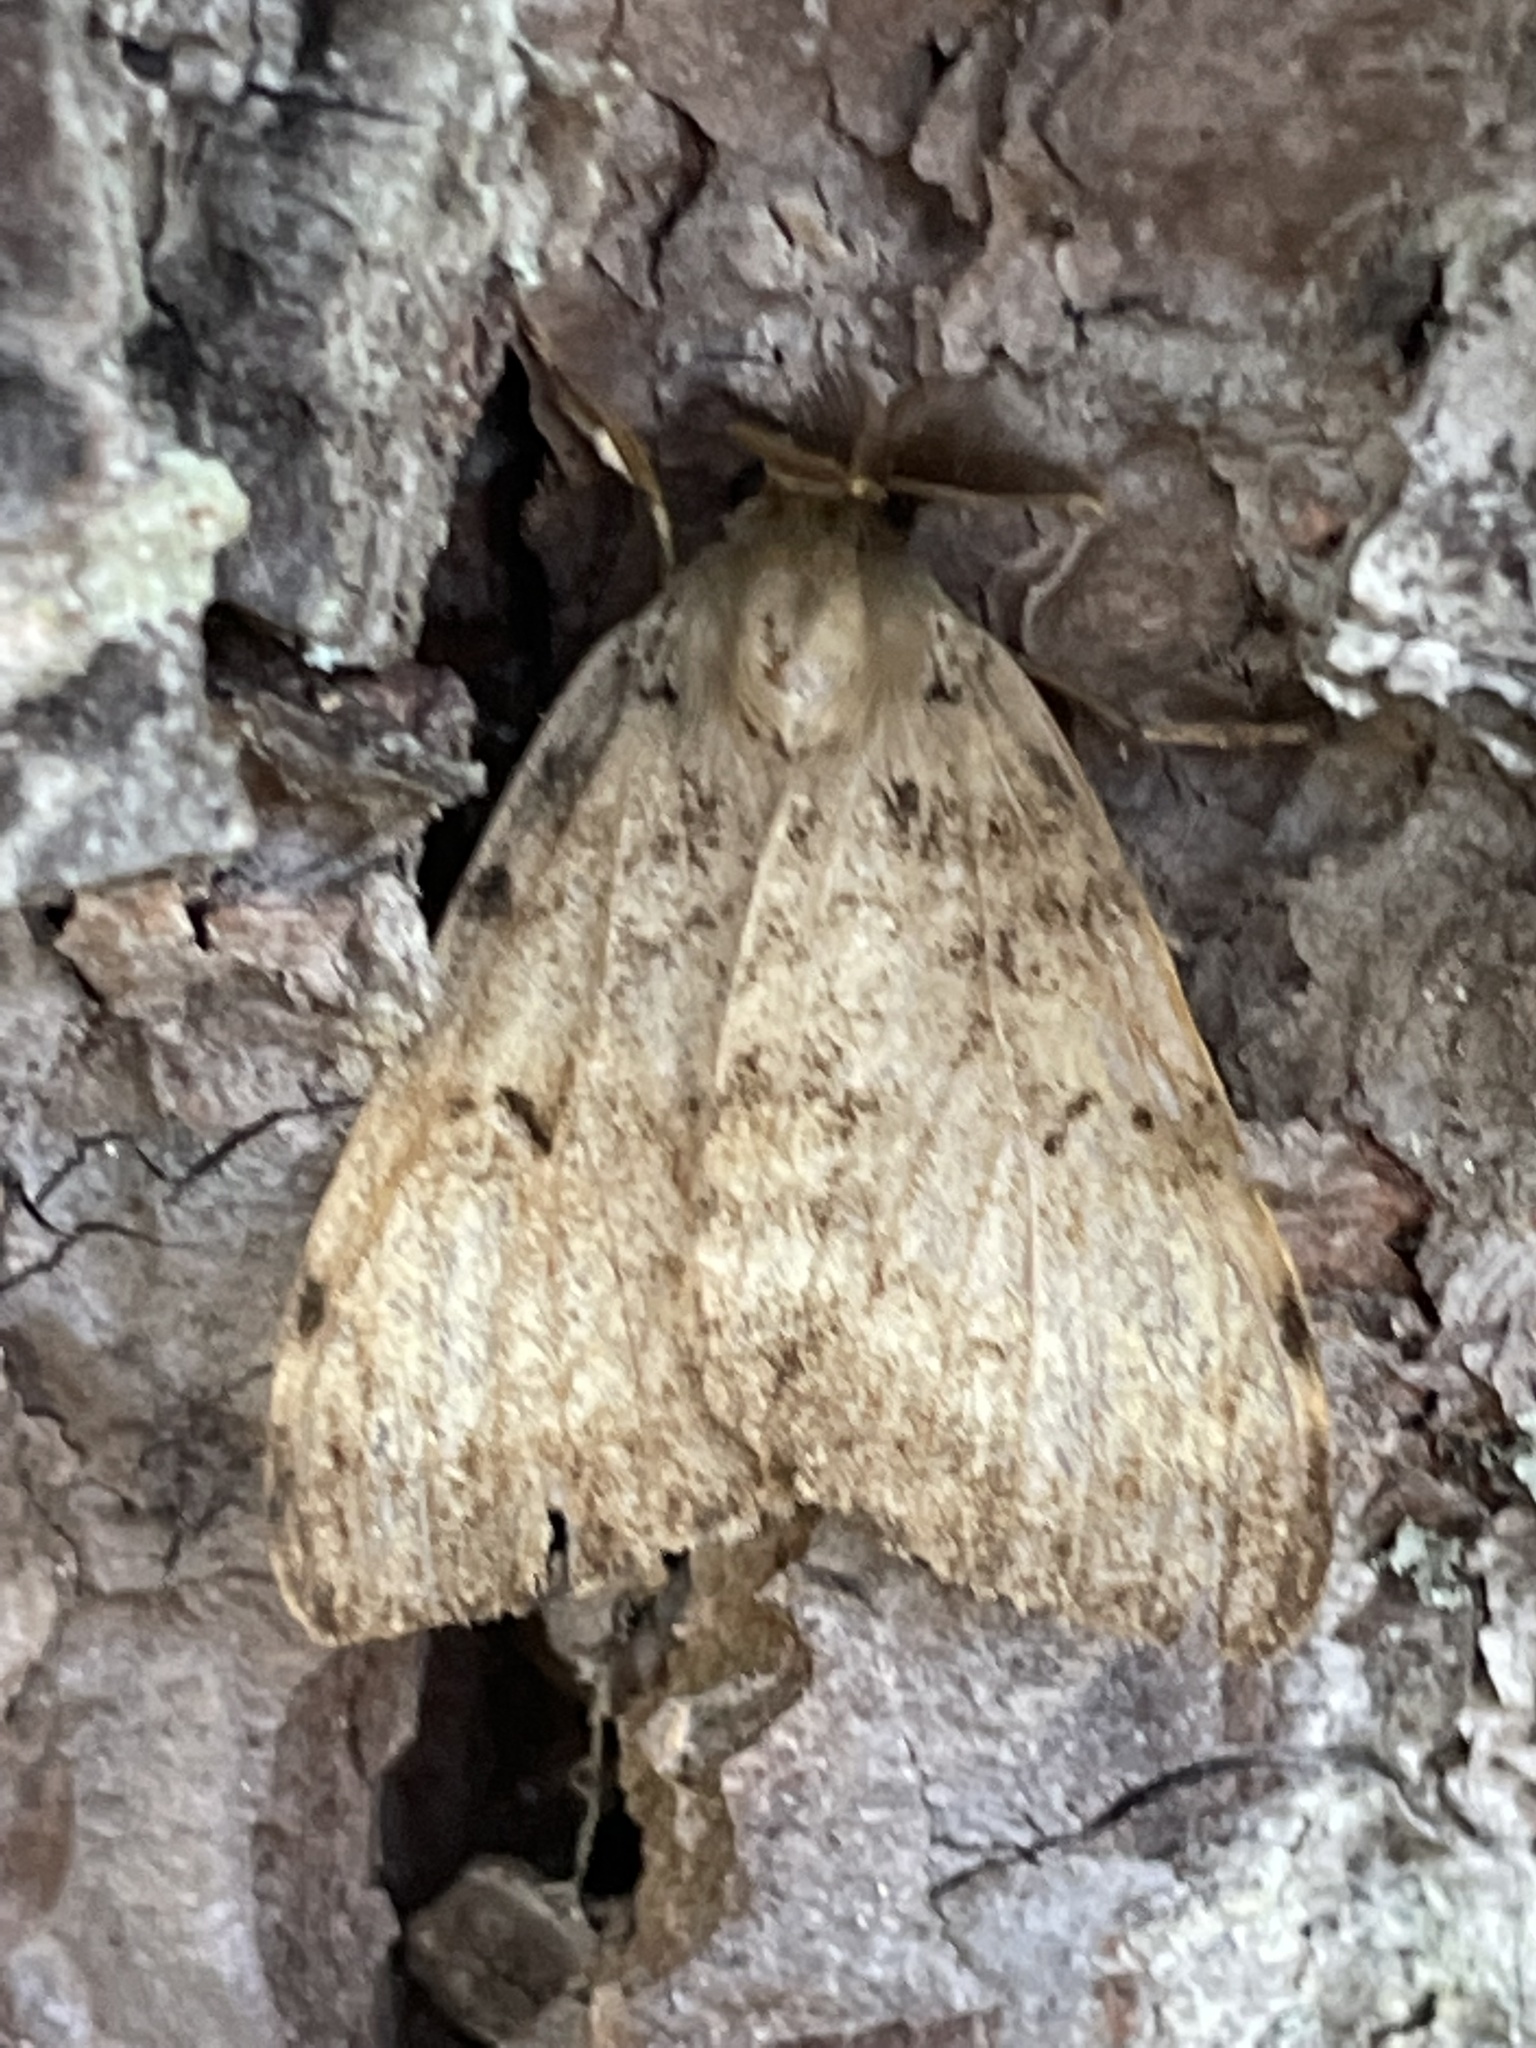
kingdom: Animalia
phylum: Arthropoda
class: Insecta
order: Lepidoptera
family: Erebidae
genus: Lymantria
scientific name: Lymantria dispar
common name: Gypsy moth
